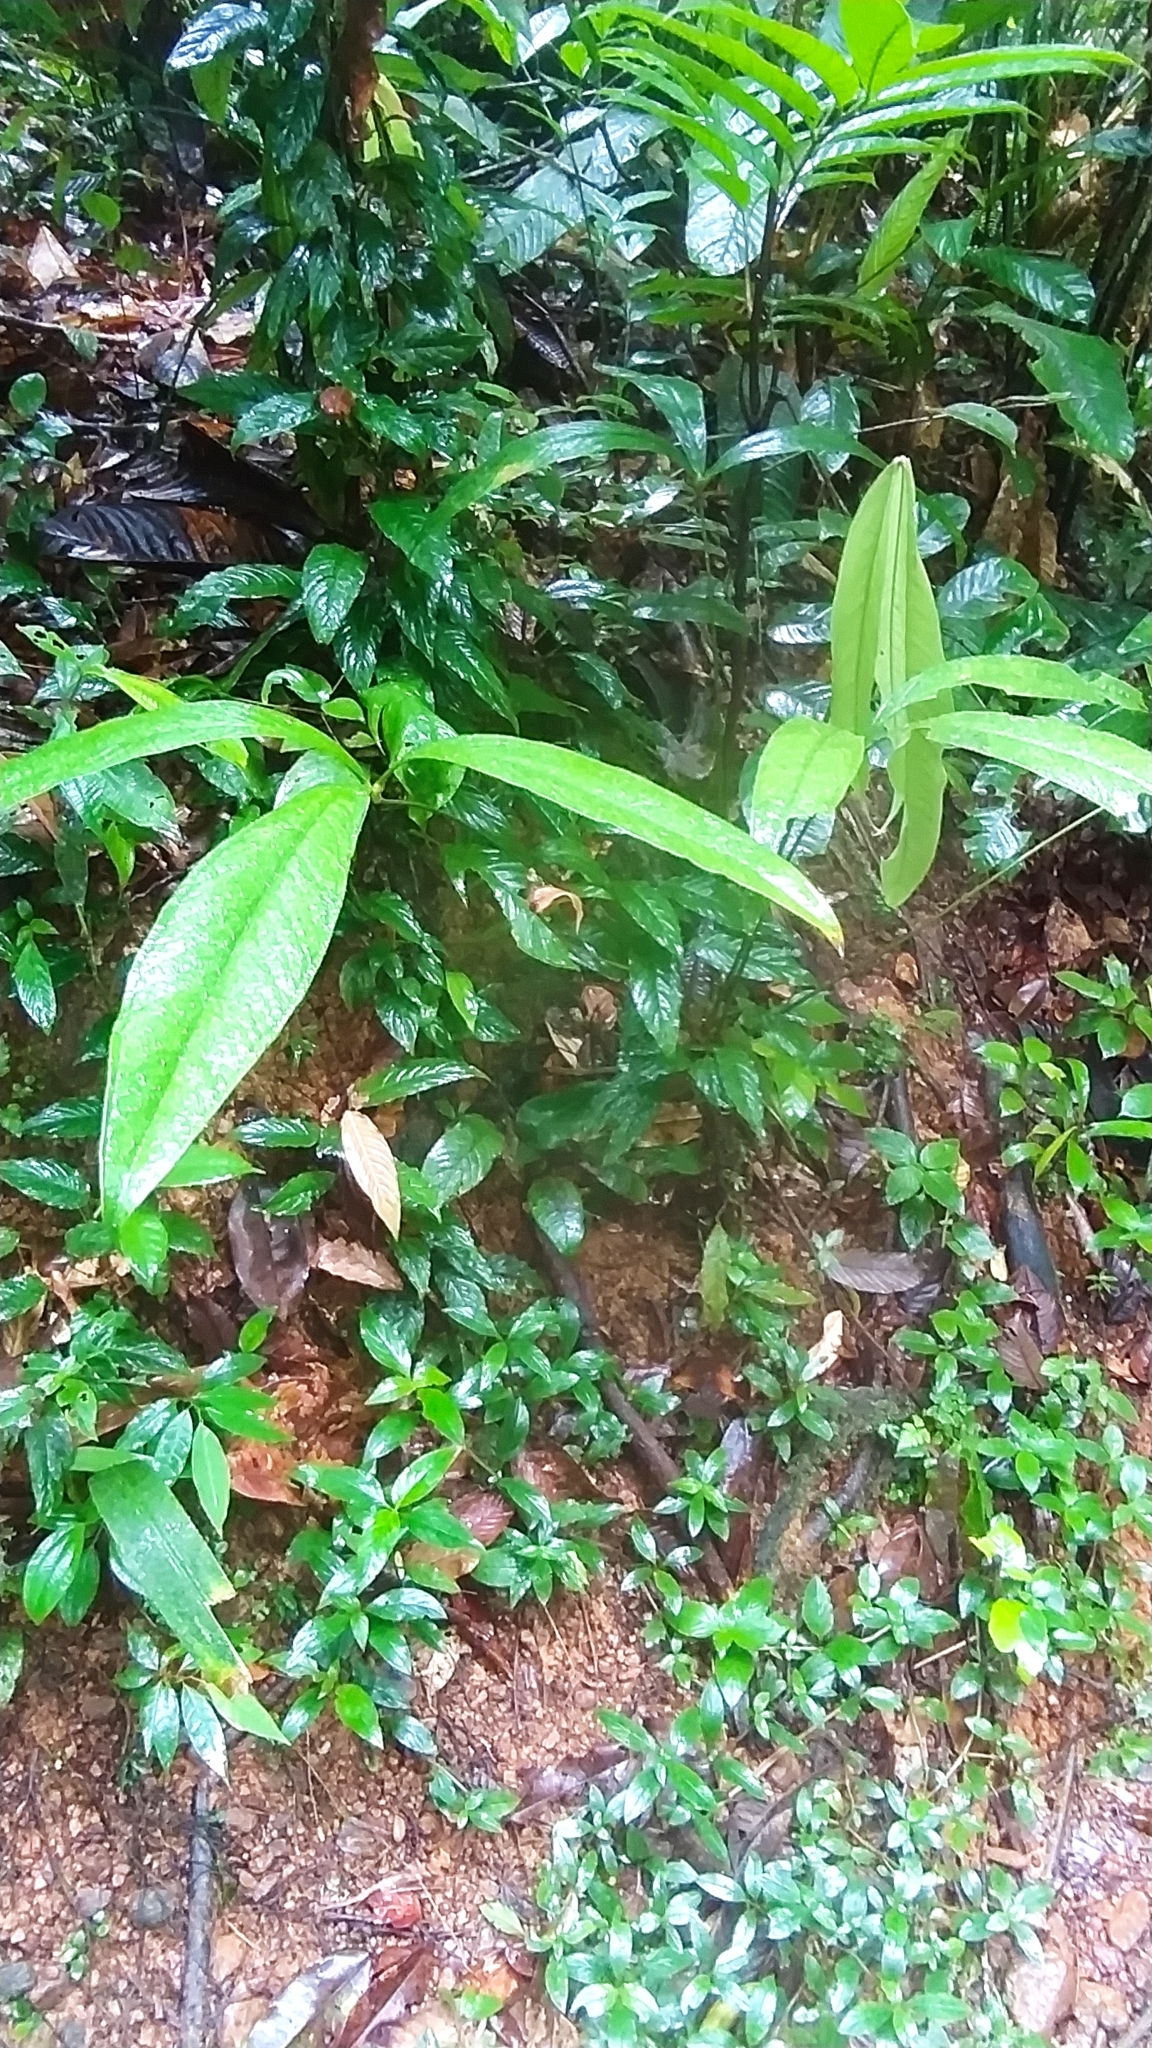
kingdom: Plantae
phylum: Tracheophyta
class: Liliopsida
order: Alismatales
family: Araceae
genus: Anthurium
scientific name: Anthurium thrinax
